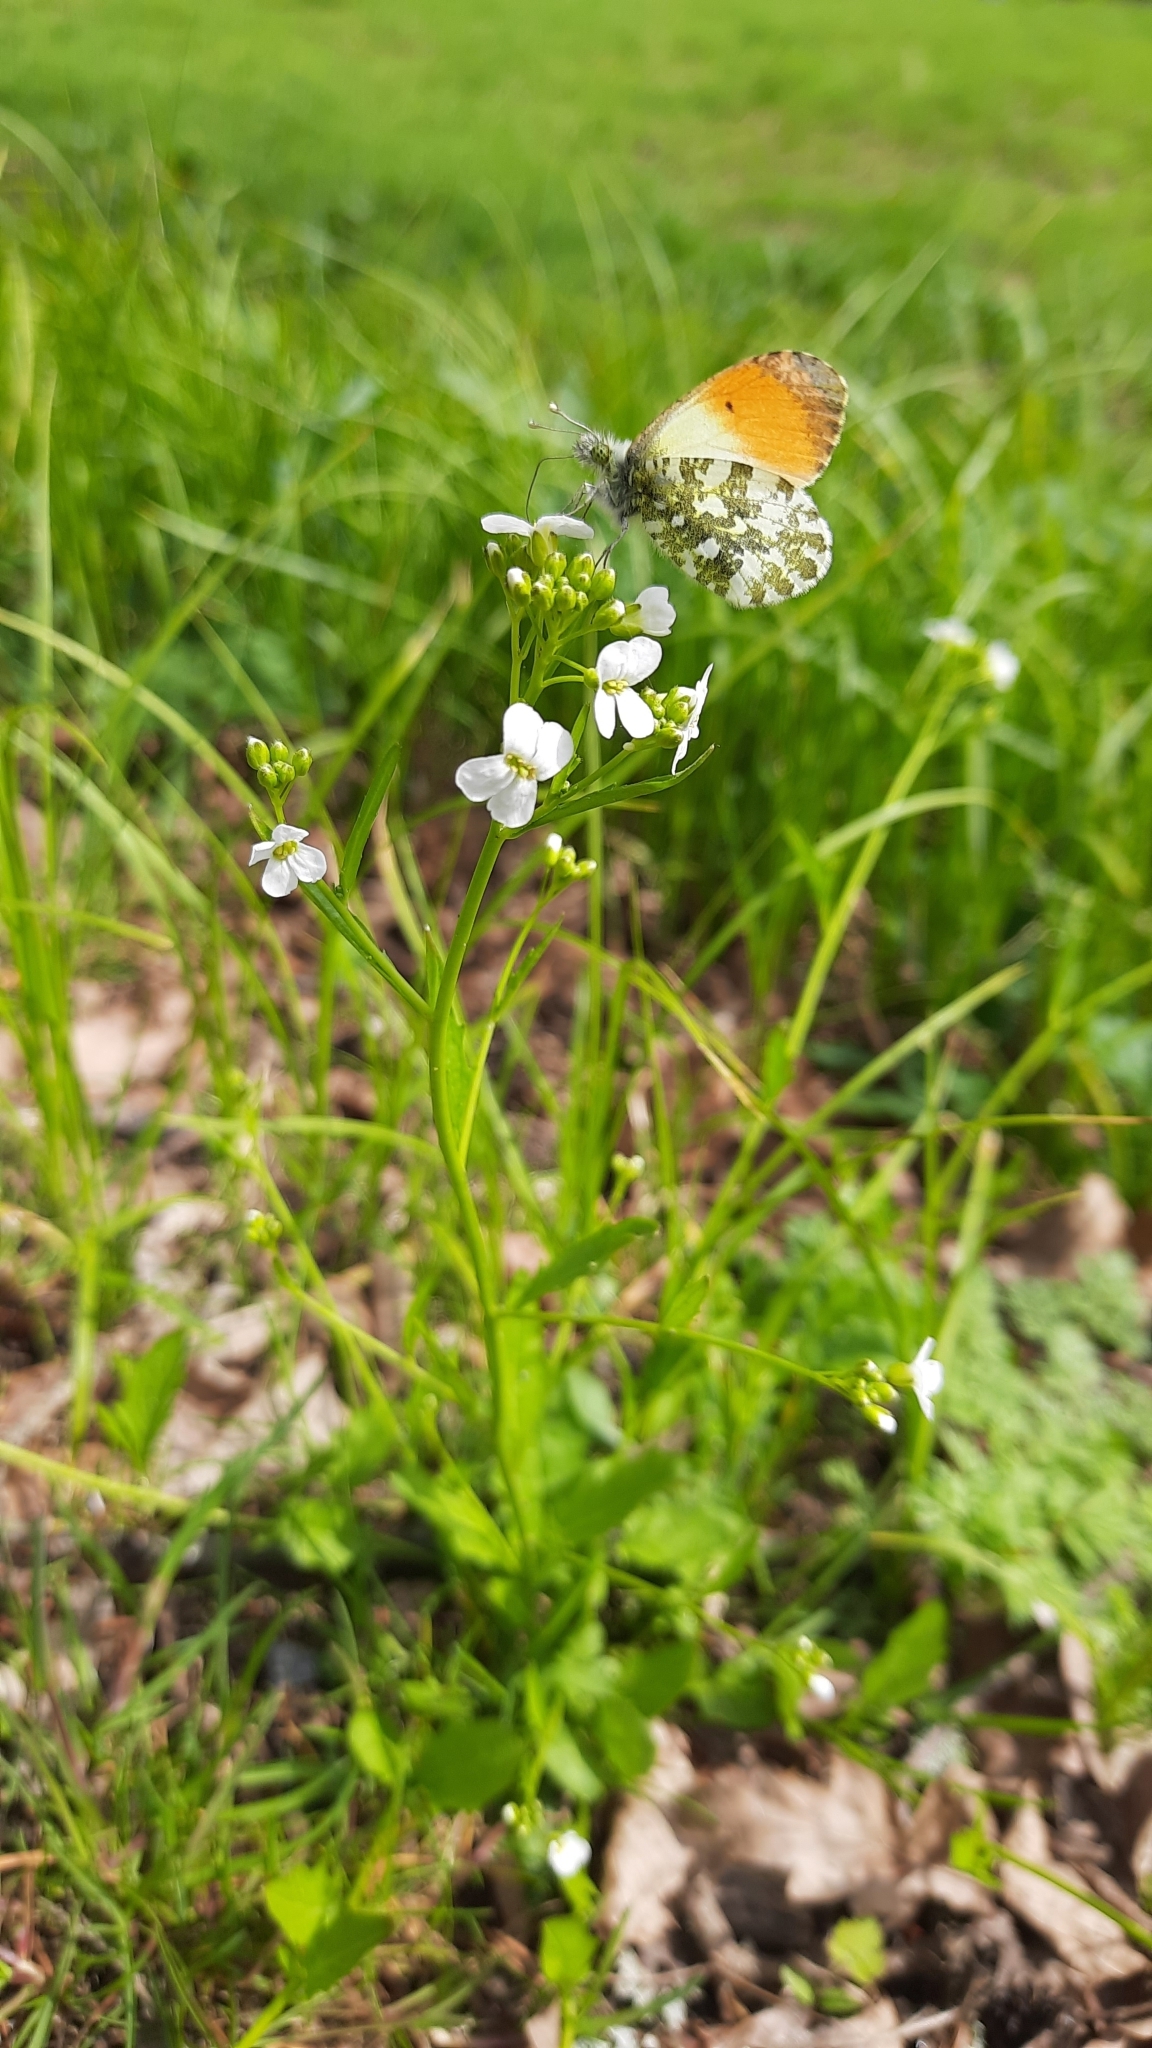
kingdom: Animalia
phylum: Arthropoda
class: Insecta
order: Lepidoptera
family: Pieridae
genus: Anthocharis
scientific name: Anthocharis cardamines
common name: Orange-tip
